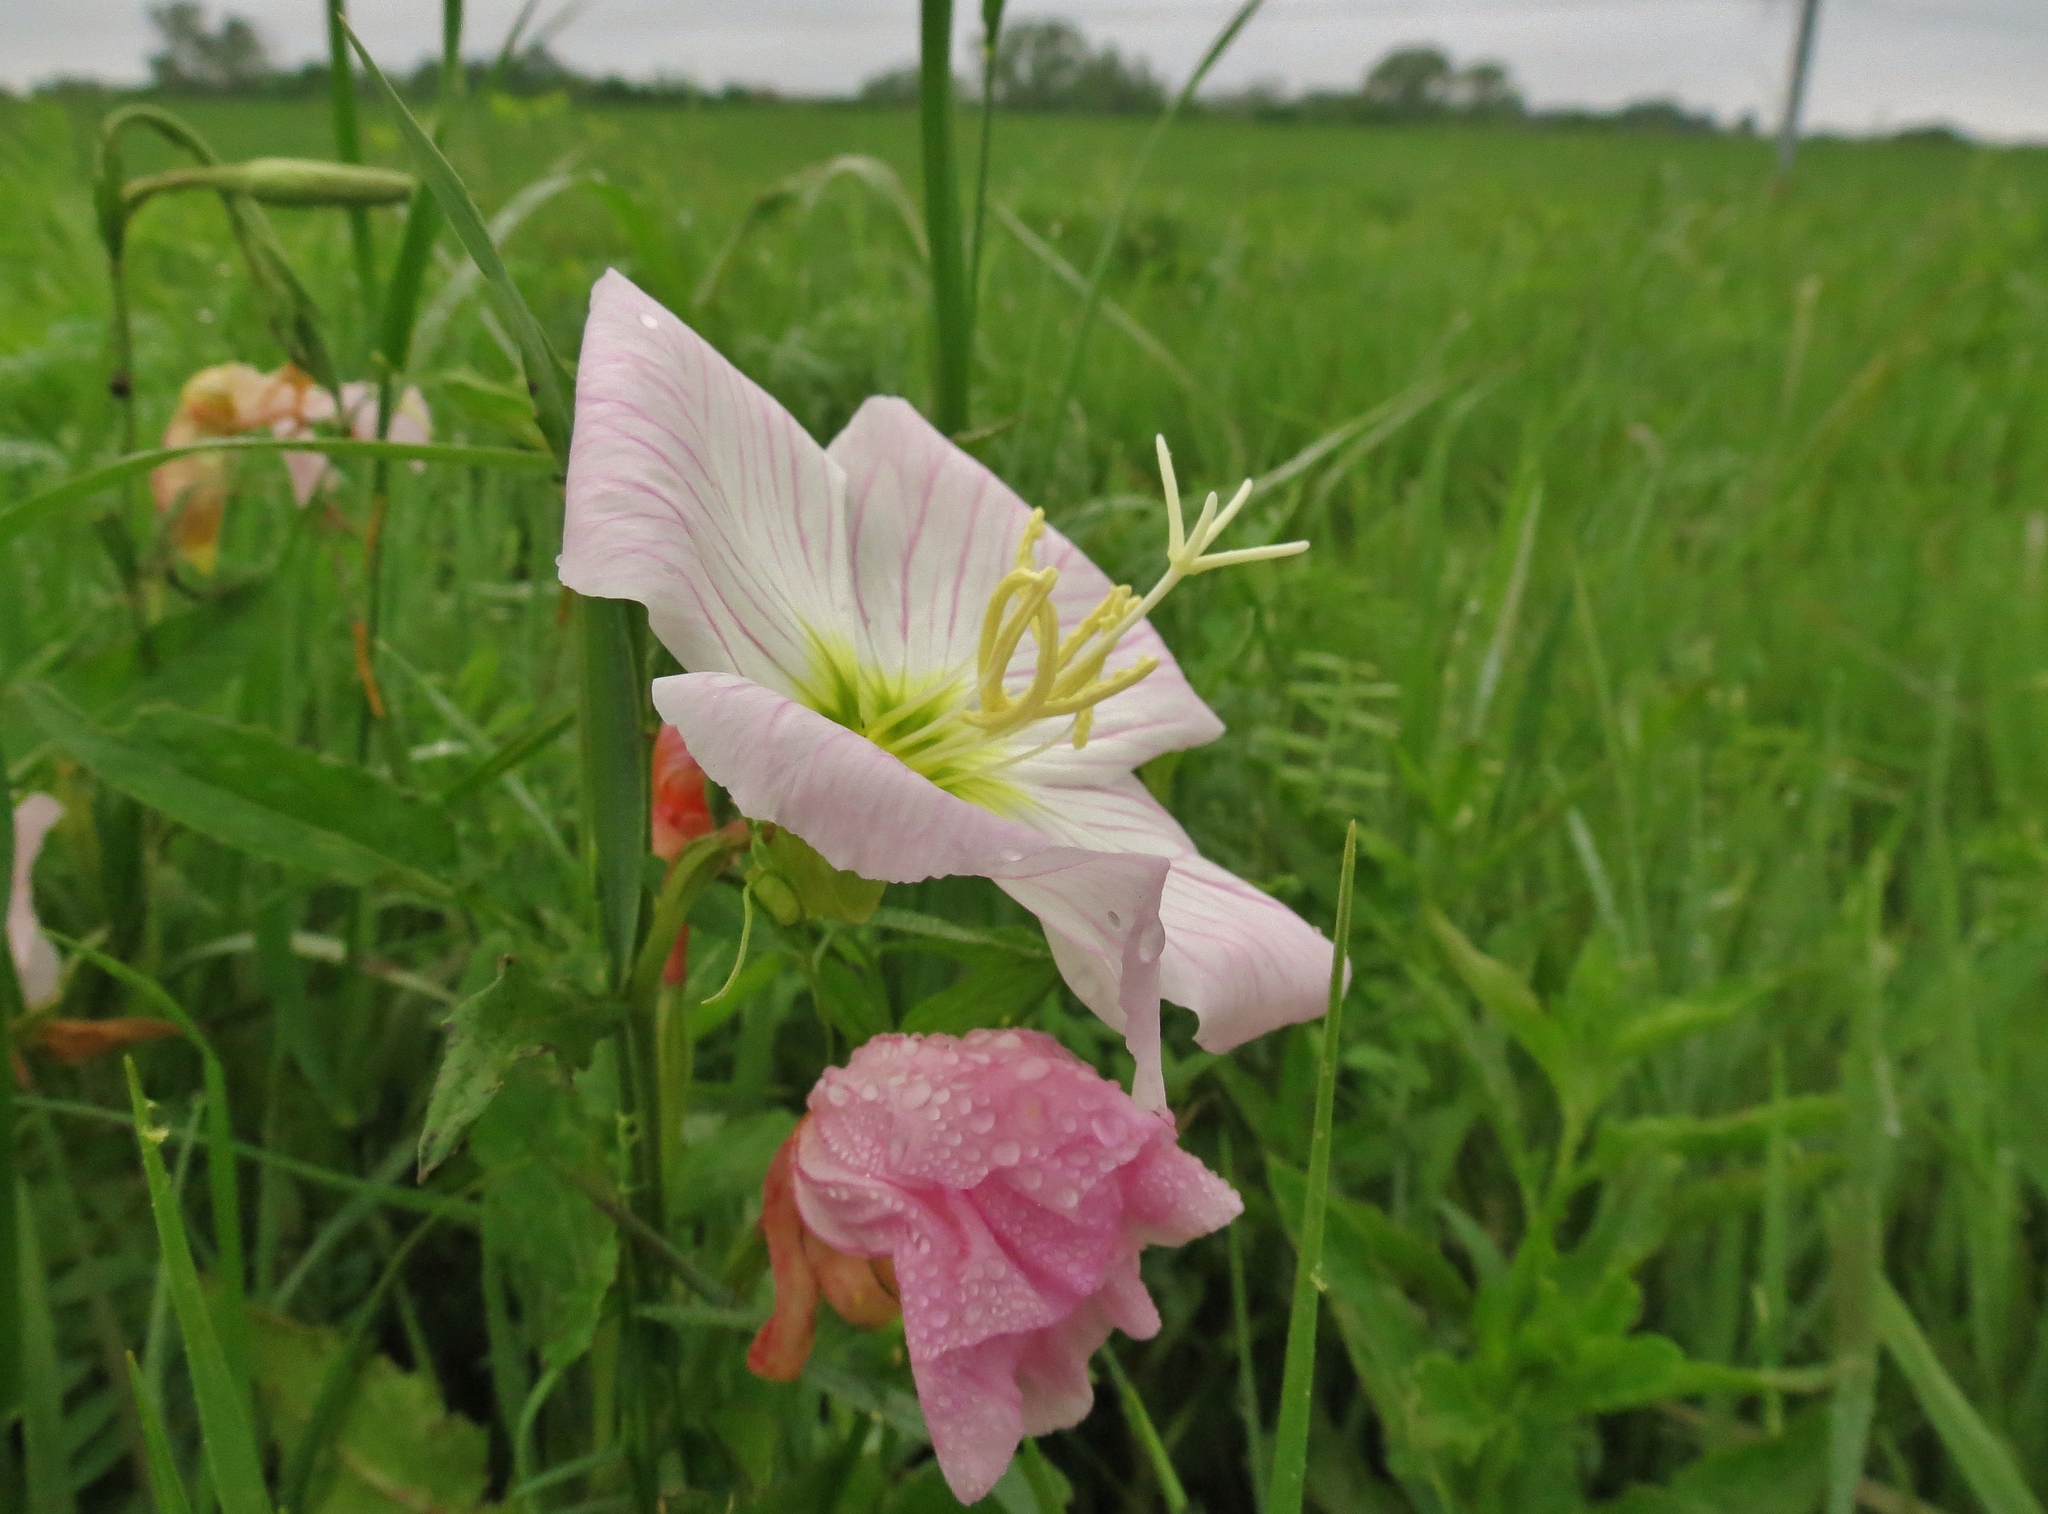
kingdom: Plantae
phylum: Tracheophyta
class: Magnoliopsida
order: Myrtales
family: Onagraceae
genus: Oenothera
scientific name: Oenothera speciosa
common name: White evening-primrose
